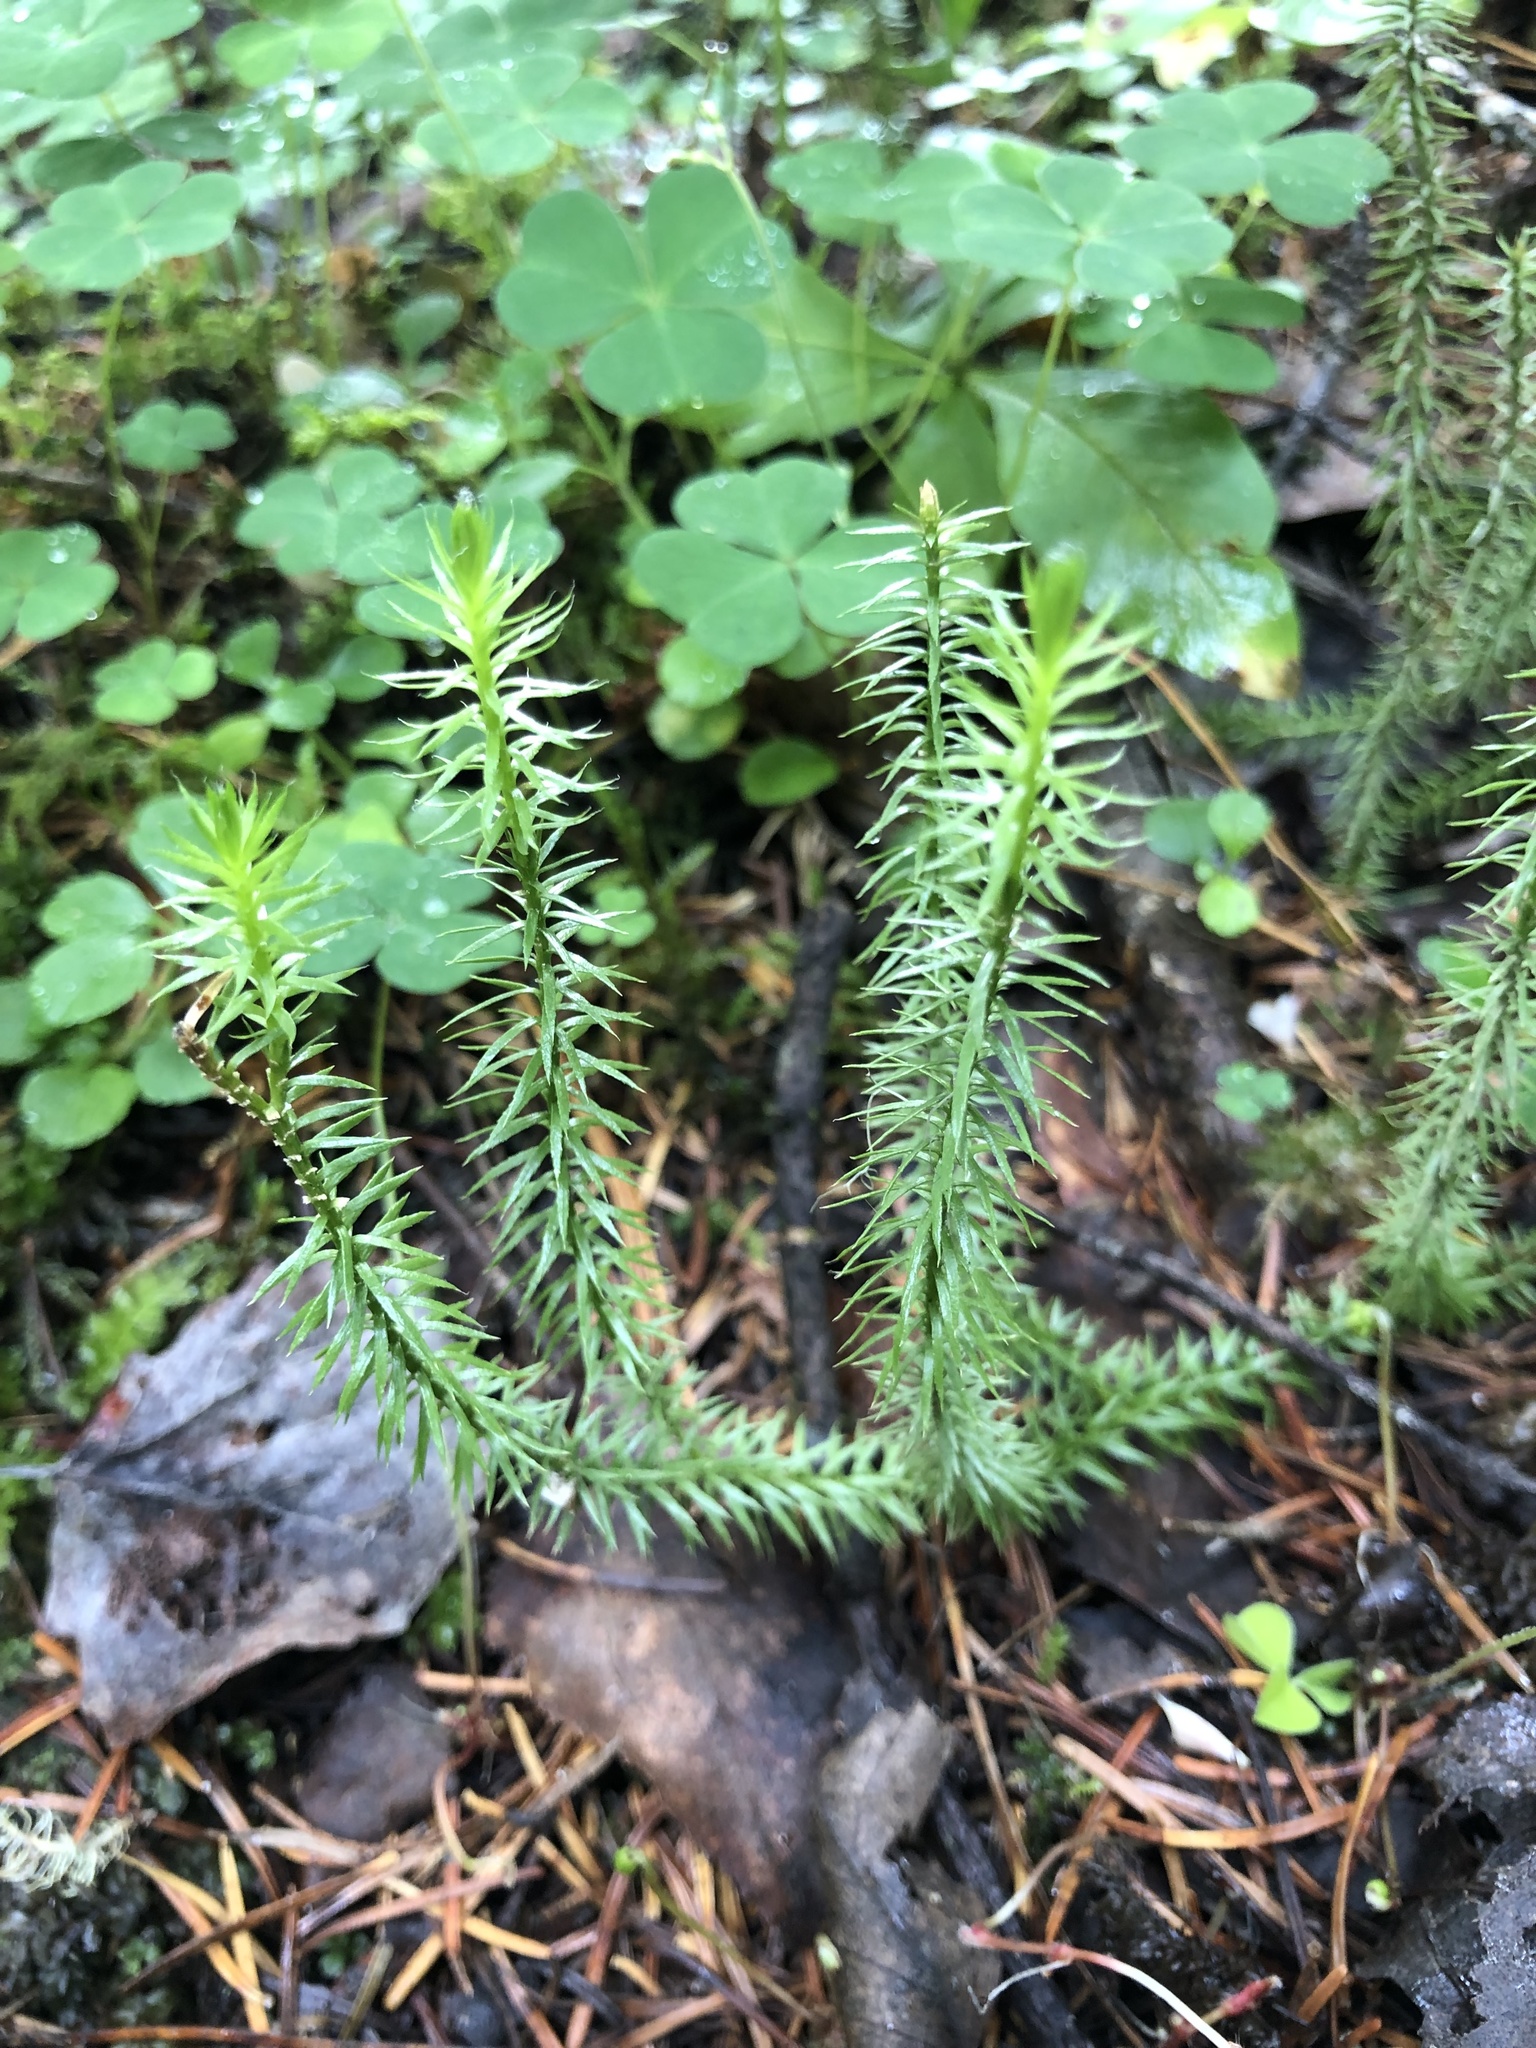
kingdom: Plantae
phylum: Tracheophyta
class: Lycopodiopsida
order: Lycopodiales
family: Lycopodiaceae
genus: Spinulum
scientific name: Spinulum annotinum
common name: Interrupted club-moss
